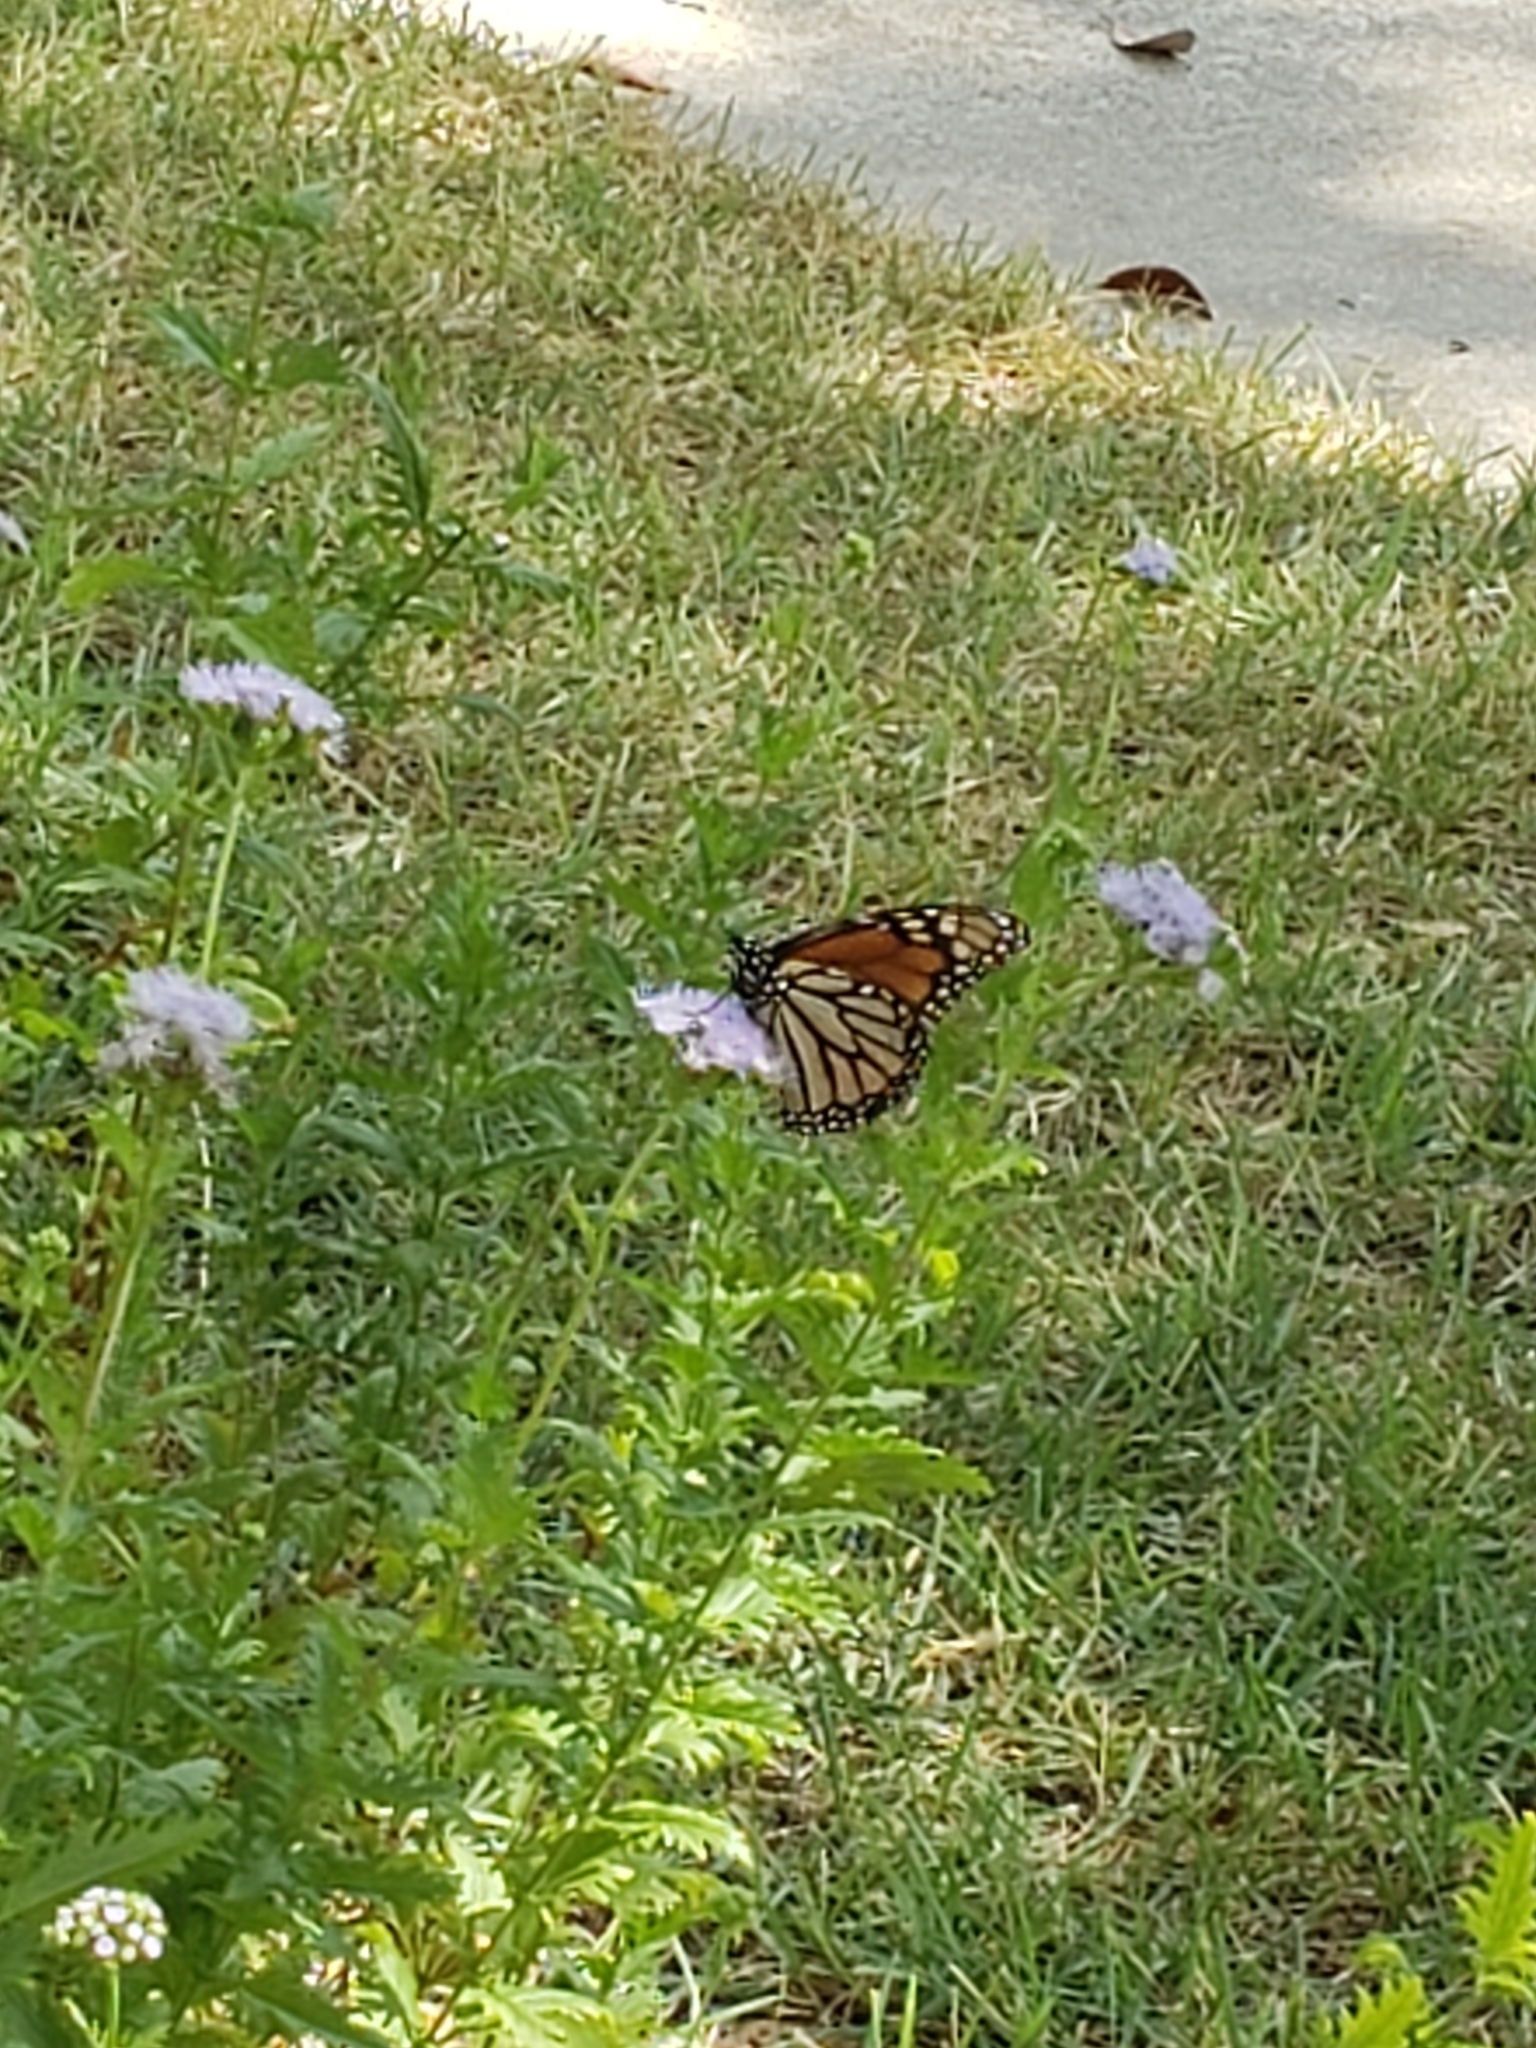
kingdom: Animalia
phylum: Arthropoda
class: Insecta
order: Lepidoptera
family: Nymphalidae
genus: Danaus
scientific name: Danaus plexippus
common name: Monarch
